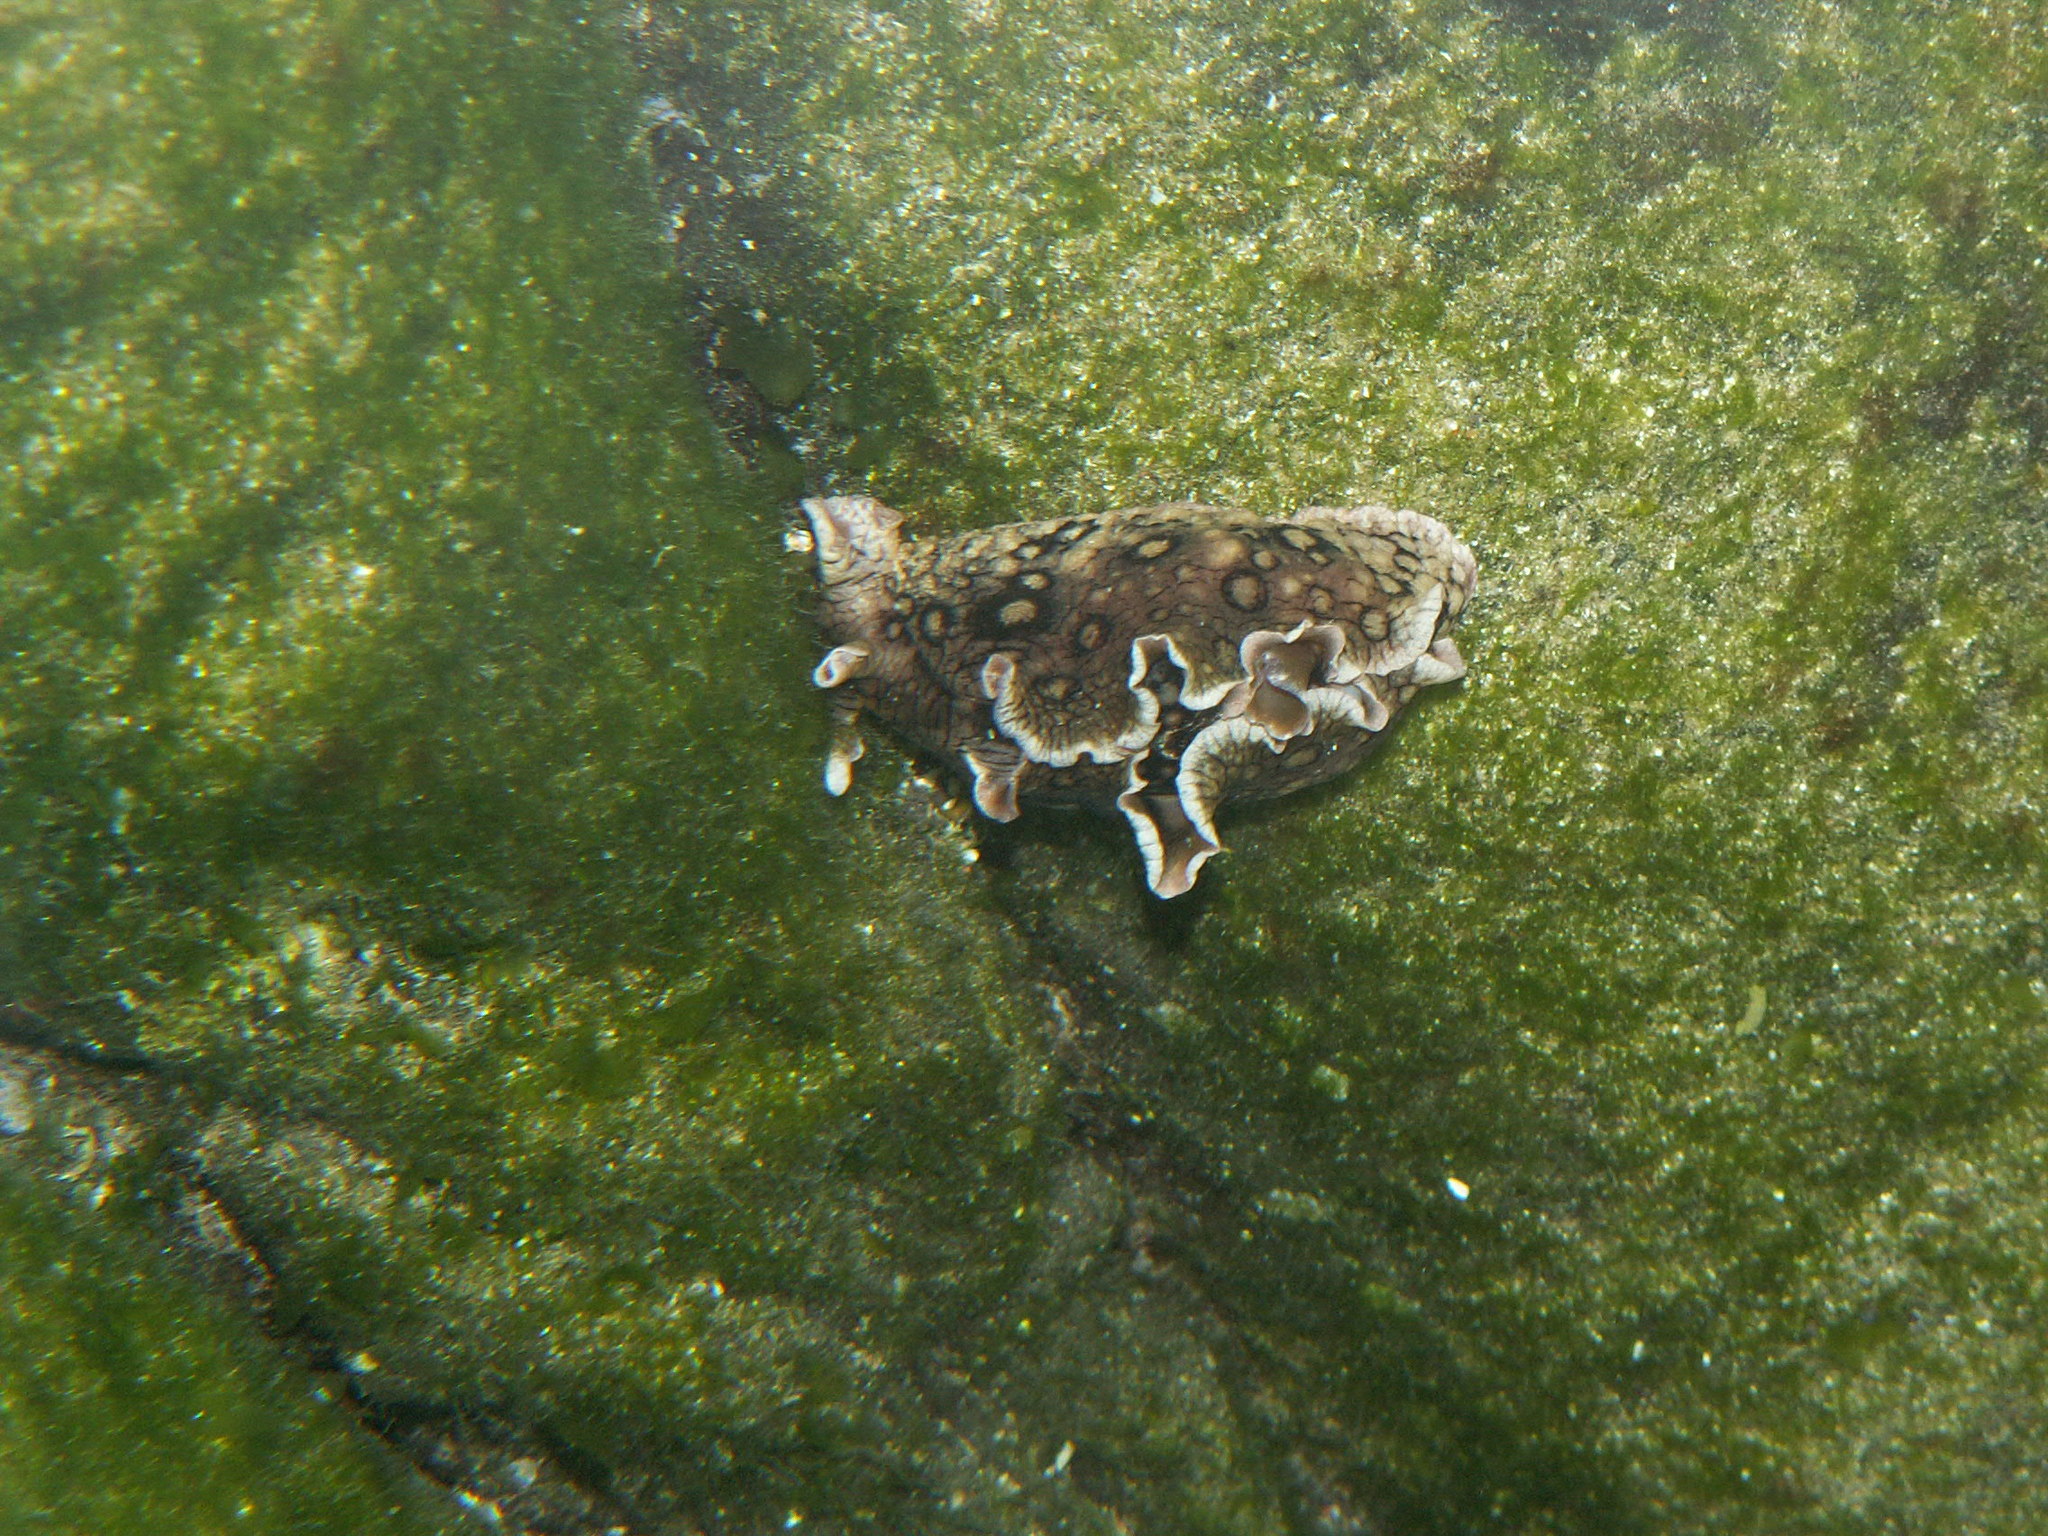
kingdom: Animalia
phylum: Mollusca
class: Gastropoda
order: Aplysiida
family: Aplysiidae
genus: Aplysia
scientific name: Aplysia dactylomela
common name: Large-spotted sea hare
